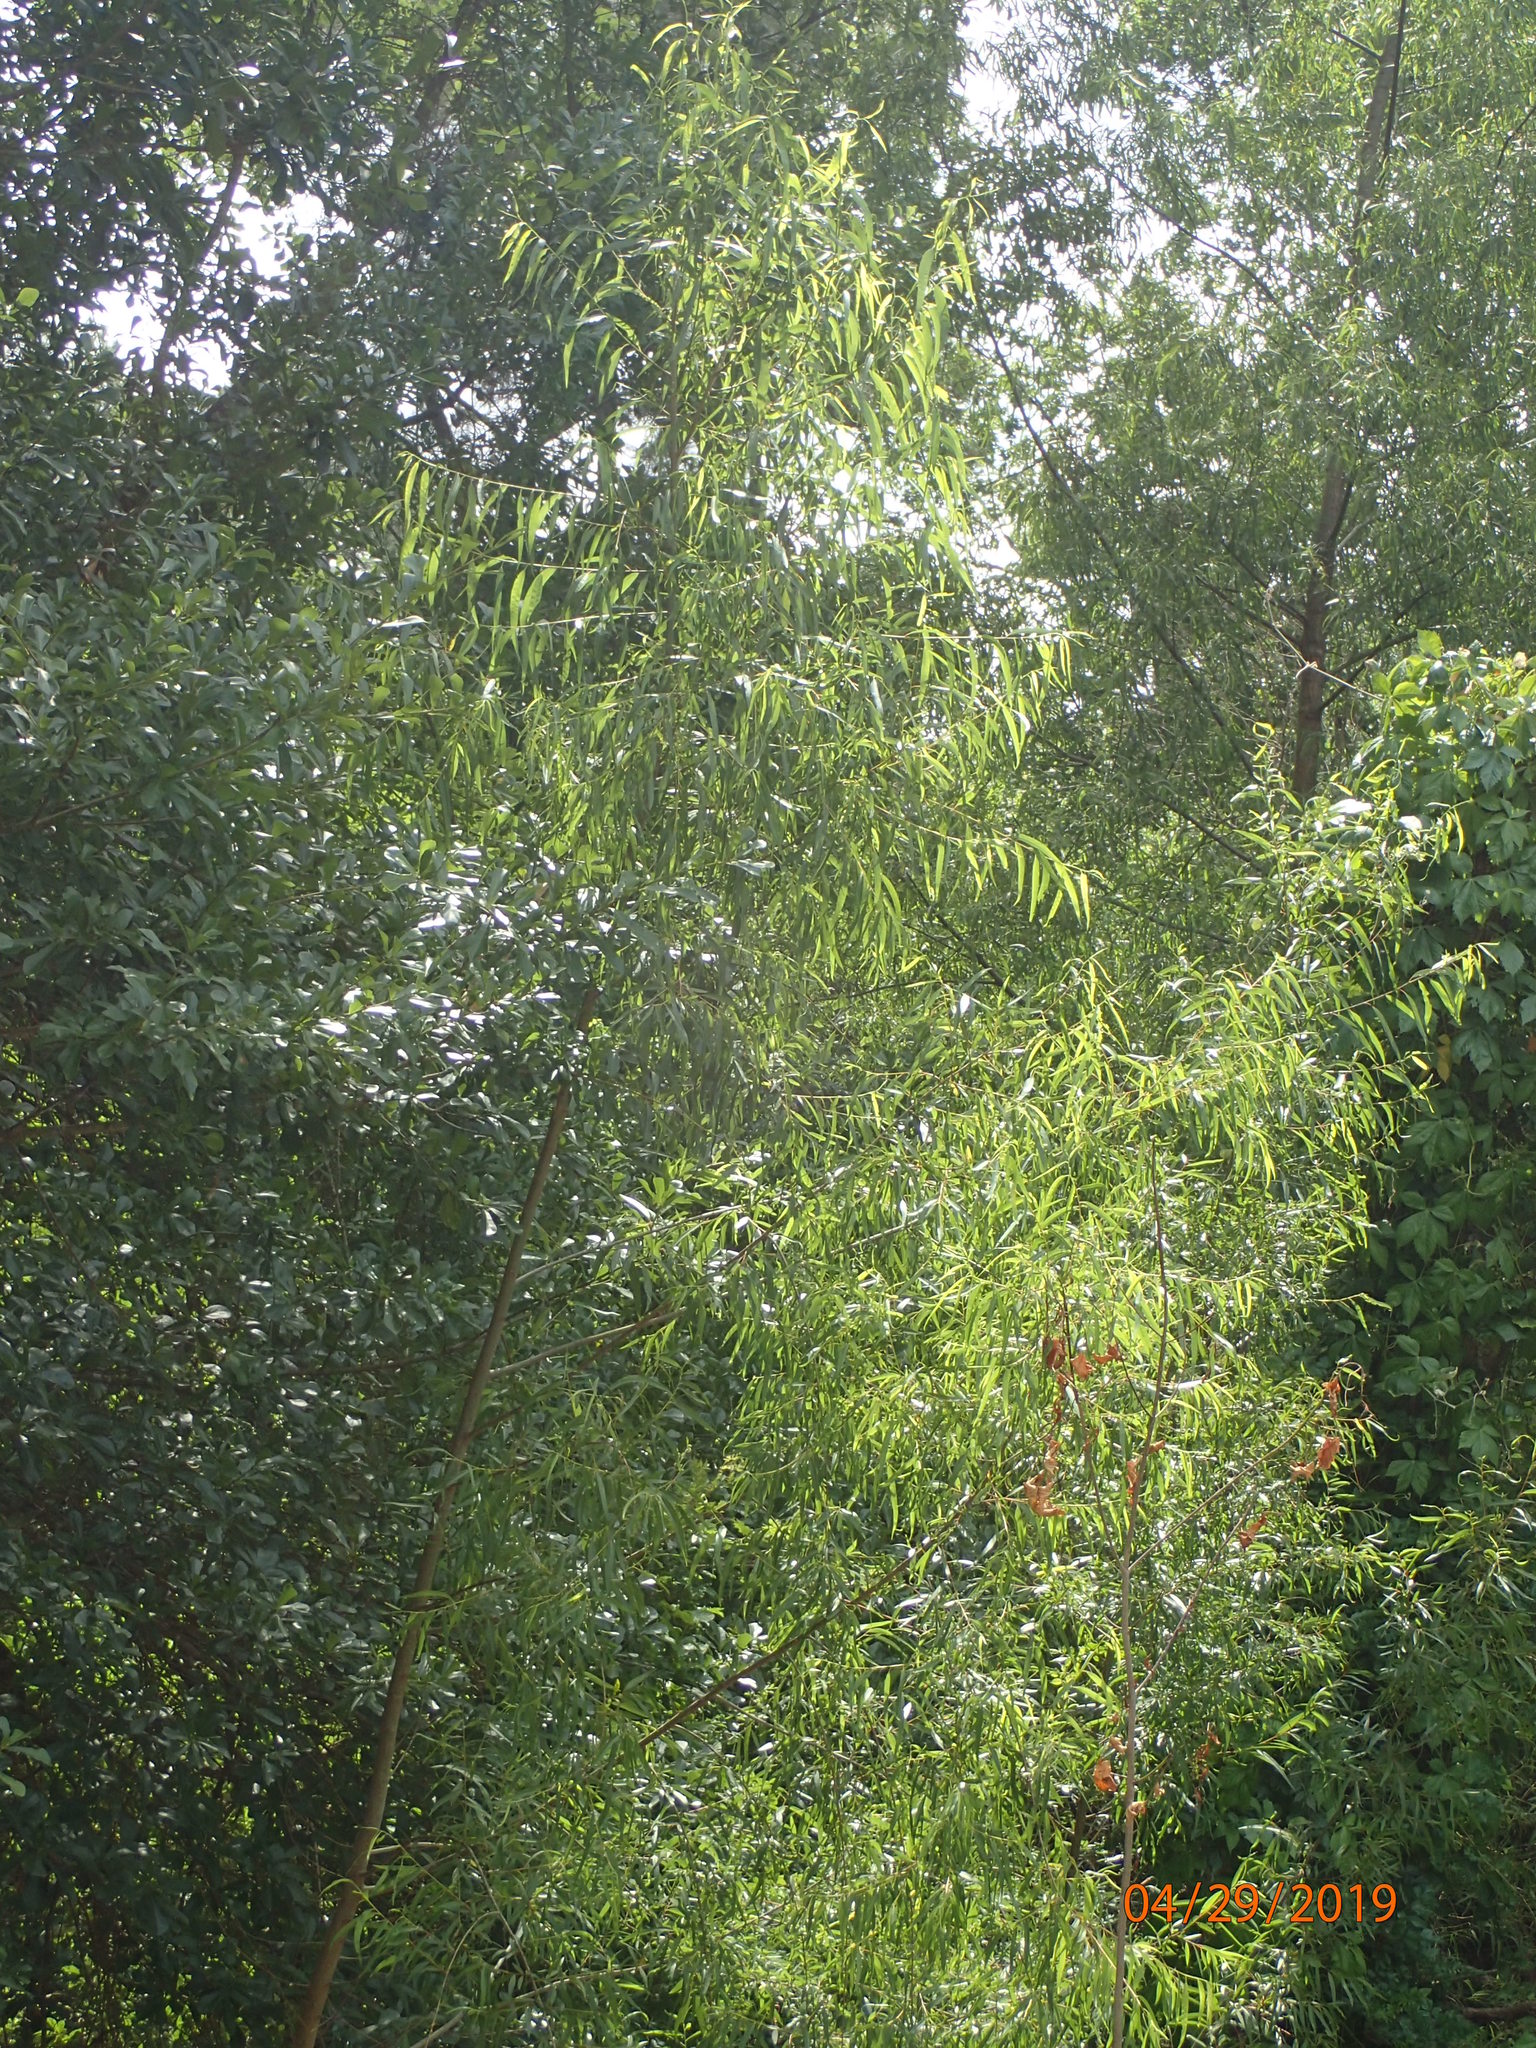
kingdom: Plantae
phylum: Tracheophyta
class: Magnoliopsida
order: Malpighiales
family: Salicaceae
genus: Salix
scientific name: Salix nigra
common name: Black willow
